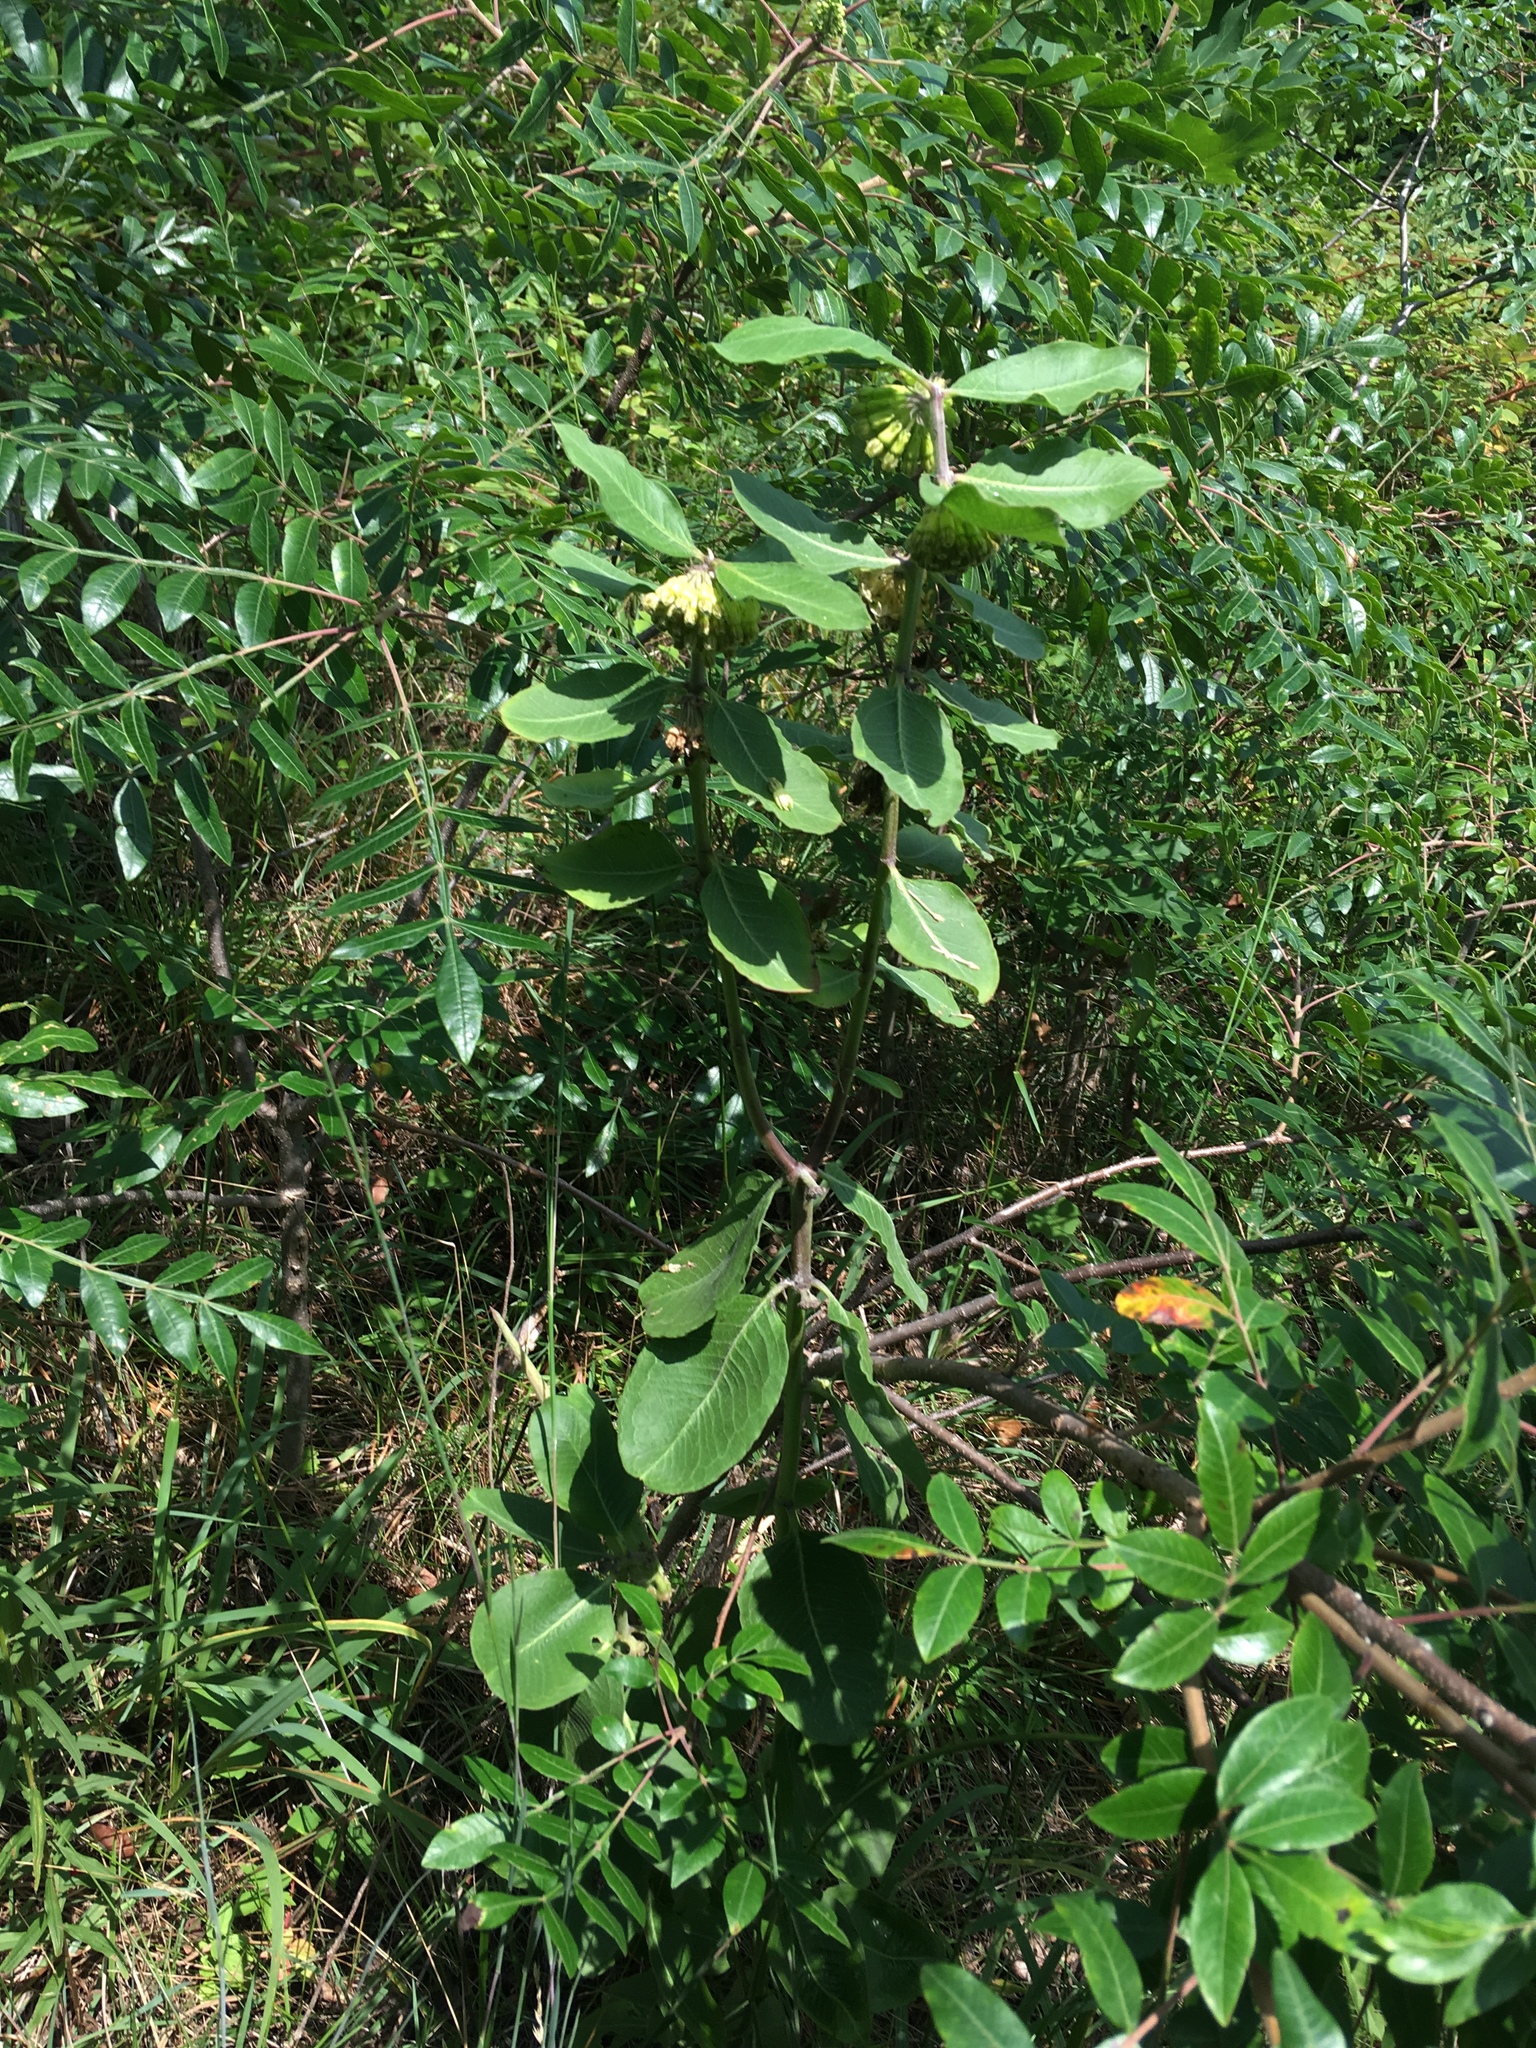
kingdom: Plantae
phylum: Tracheophyta
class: Magnoliopsida
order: Gentianales
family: Apocynaceae
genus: Asclepias
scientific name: Asclepias viridiflora
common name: Green comet milkweed
